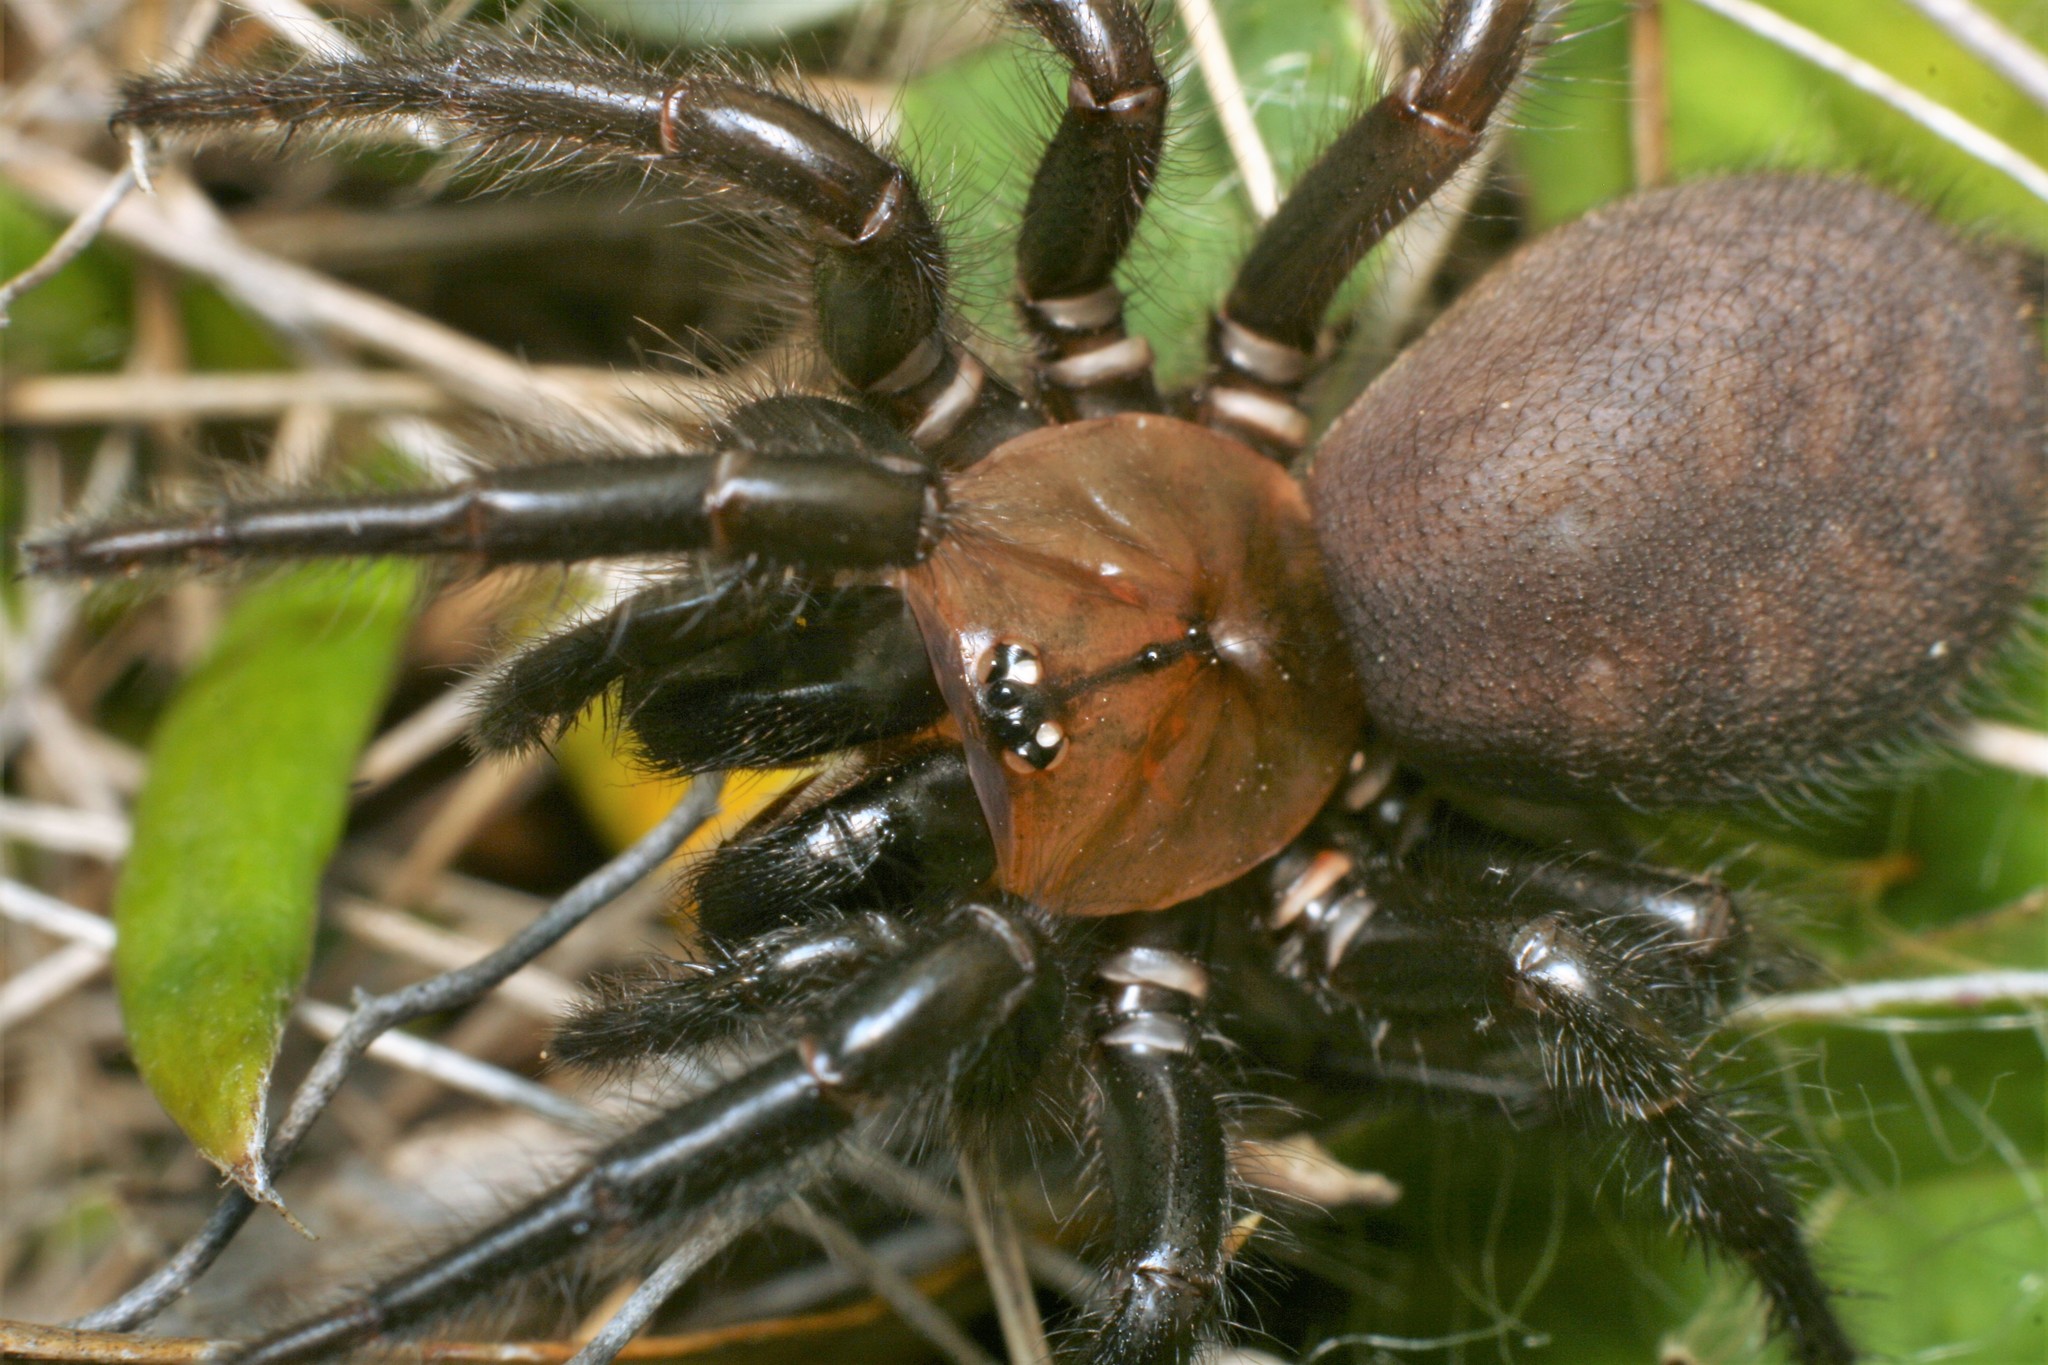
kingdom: Animalia
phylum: Arthropoda
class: Arachnida
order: Araneae
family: Porrhothelidae
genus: Porrhothele
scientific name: Porrhothele antipodiana
